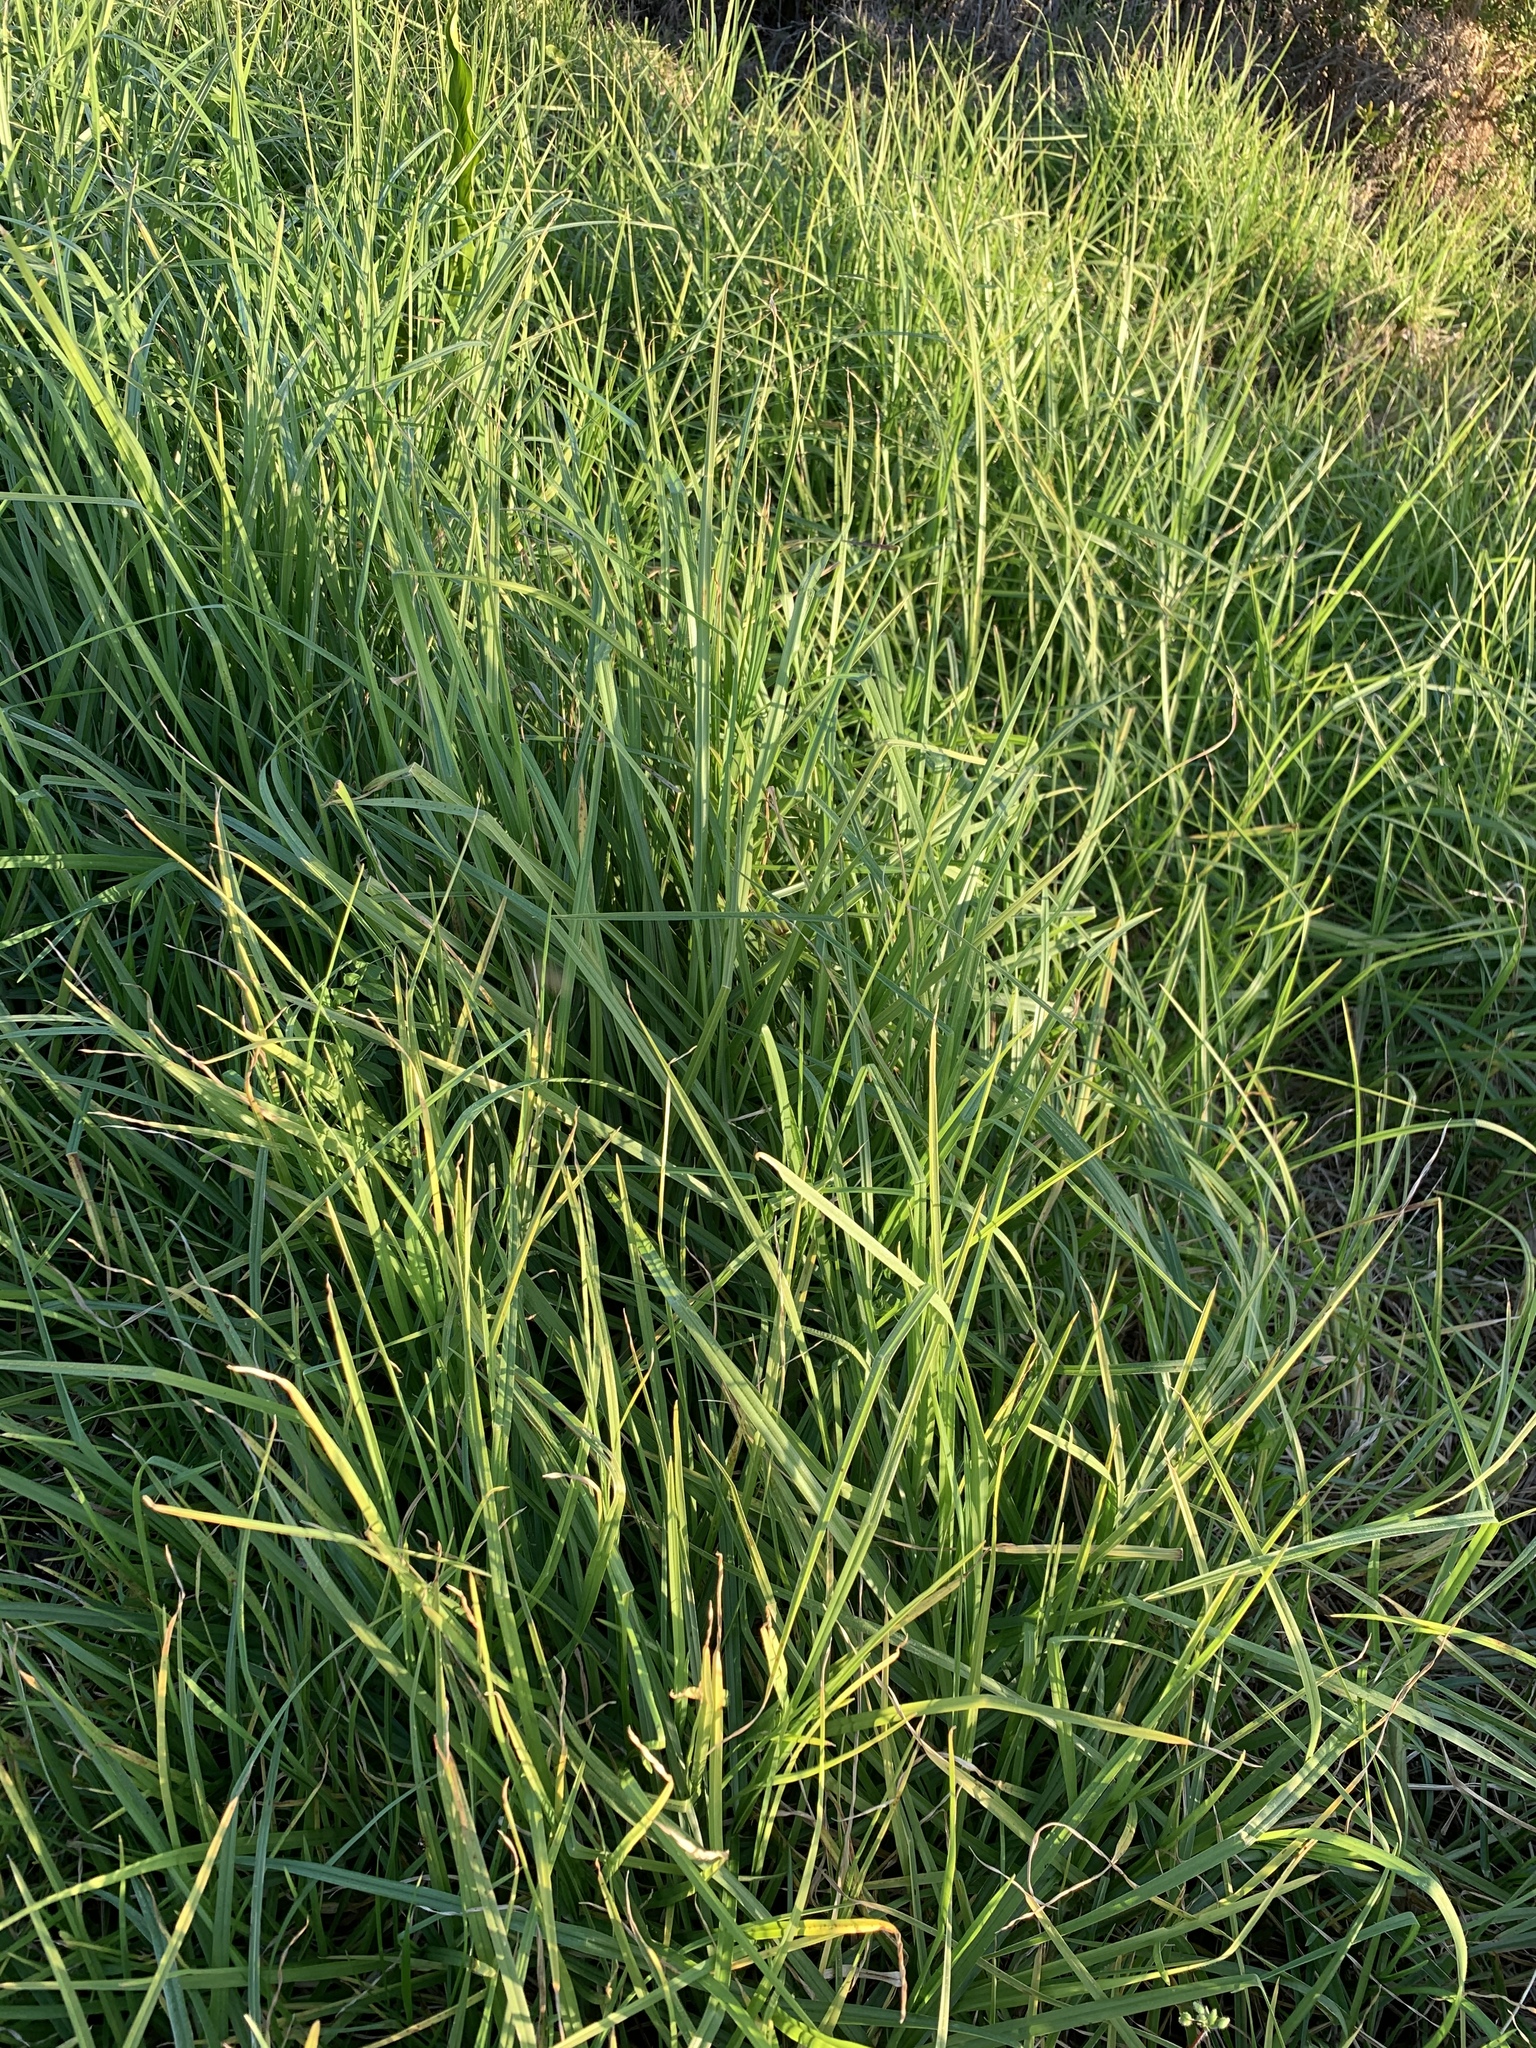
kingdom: Plantae
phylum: Tracheophyta
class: Liliopsida
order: Poales
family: Poaceae
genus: Cenchrus
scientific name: Cenchrus clandestinus
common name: Kikuyugrass
